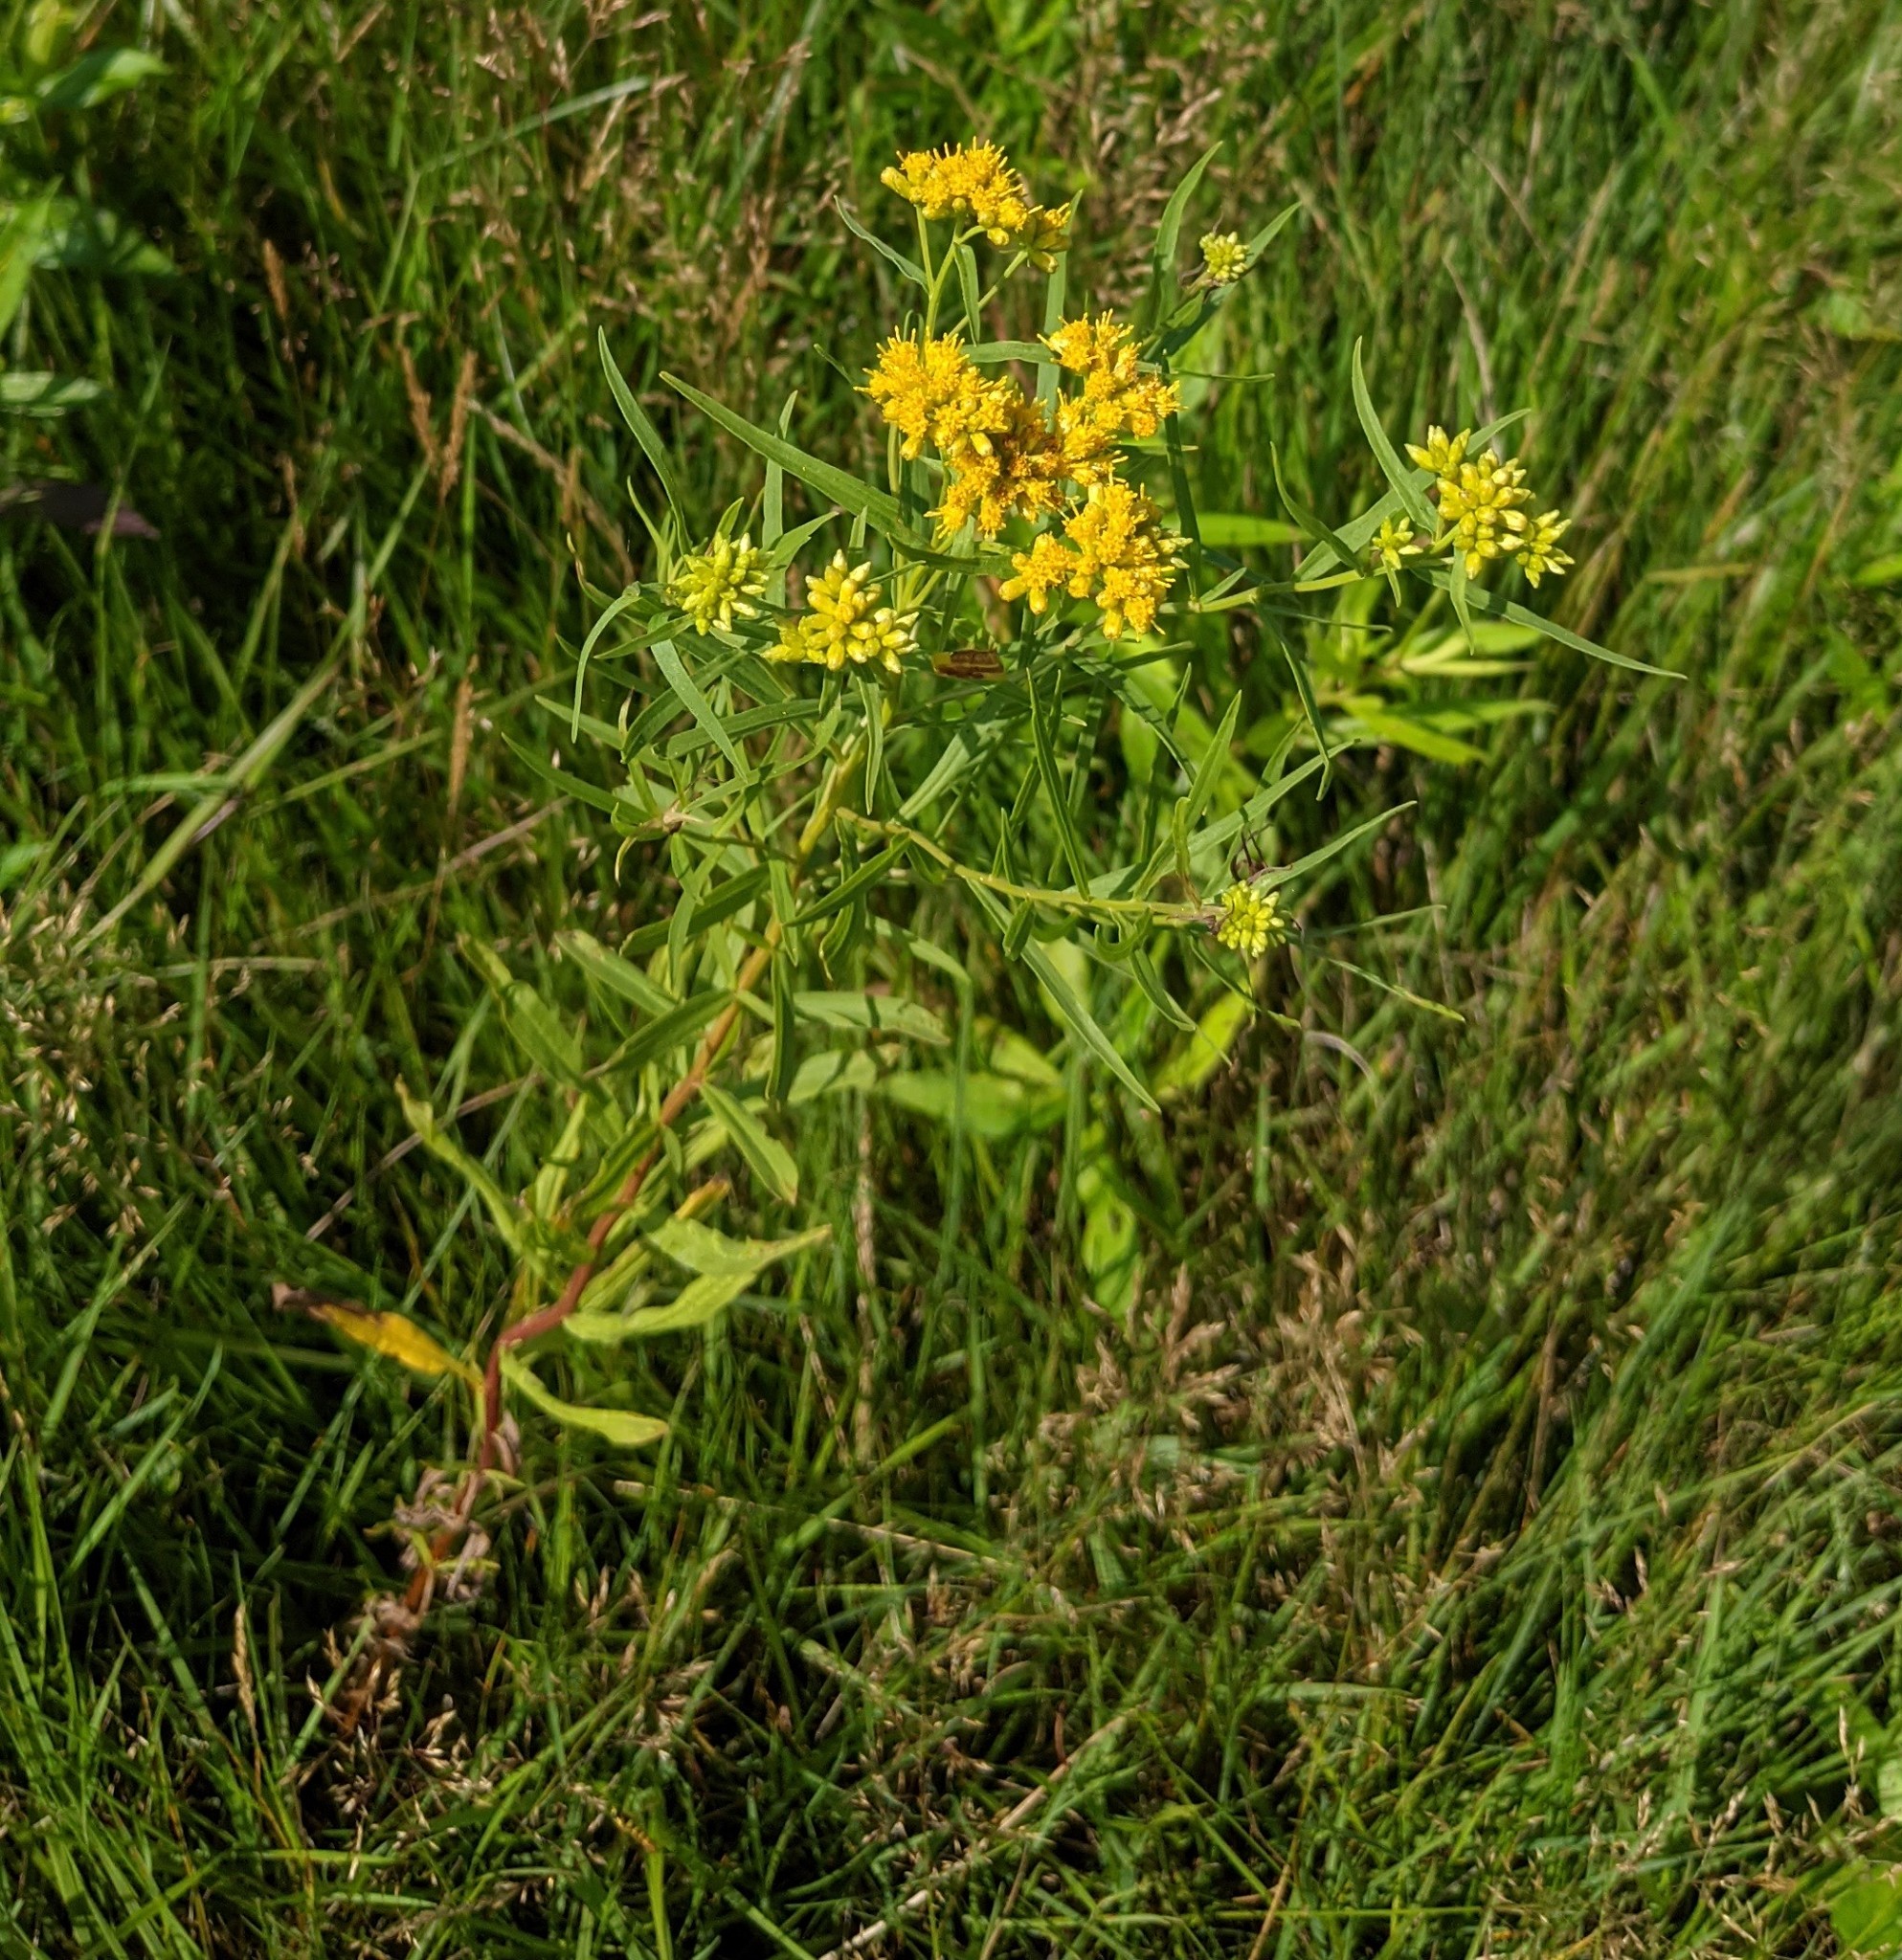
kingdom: Plantae
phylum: Tracheophyta
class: Magnoliopsida
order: Asterales
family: Asteraceae
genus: Euthamia
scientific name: Euthamia graminifolia
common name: Common goldentop
